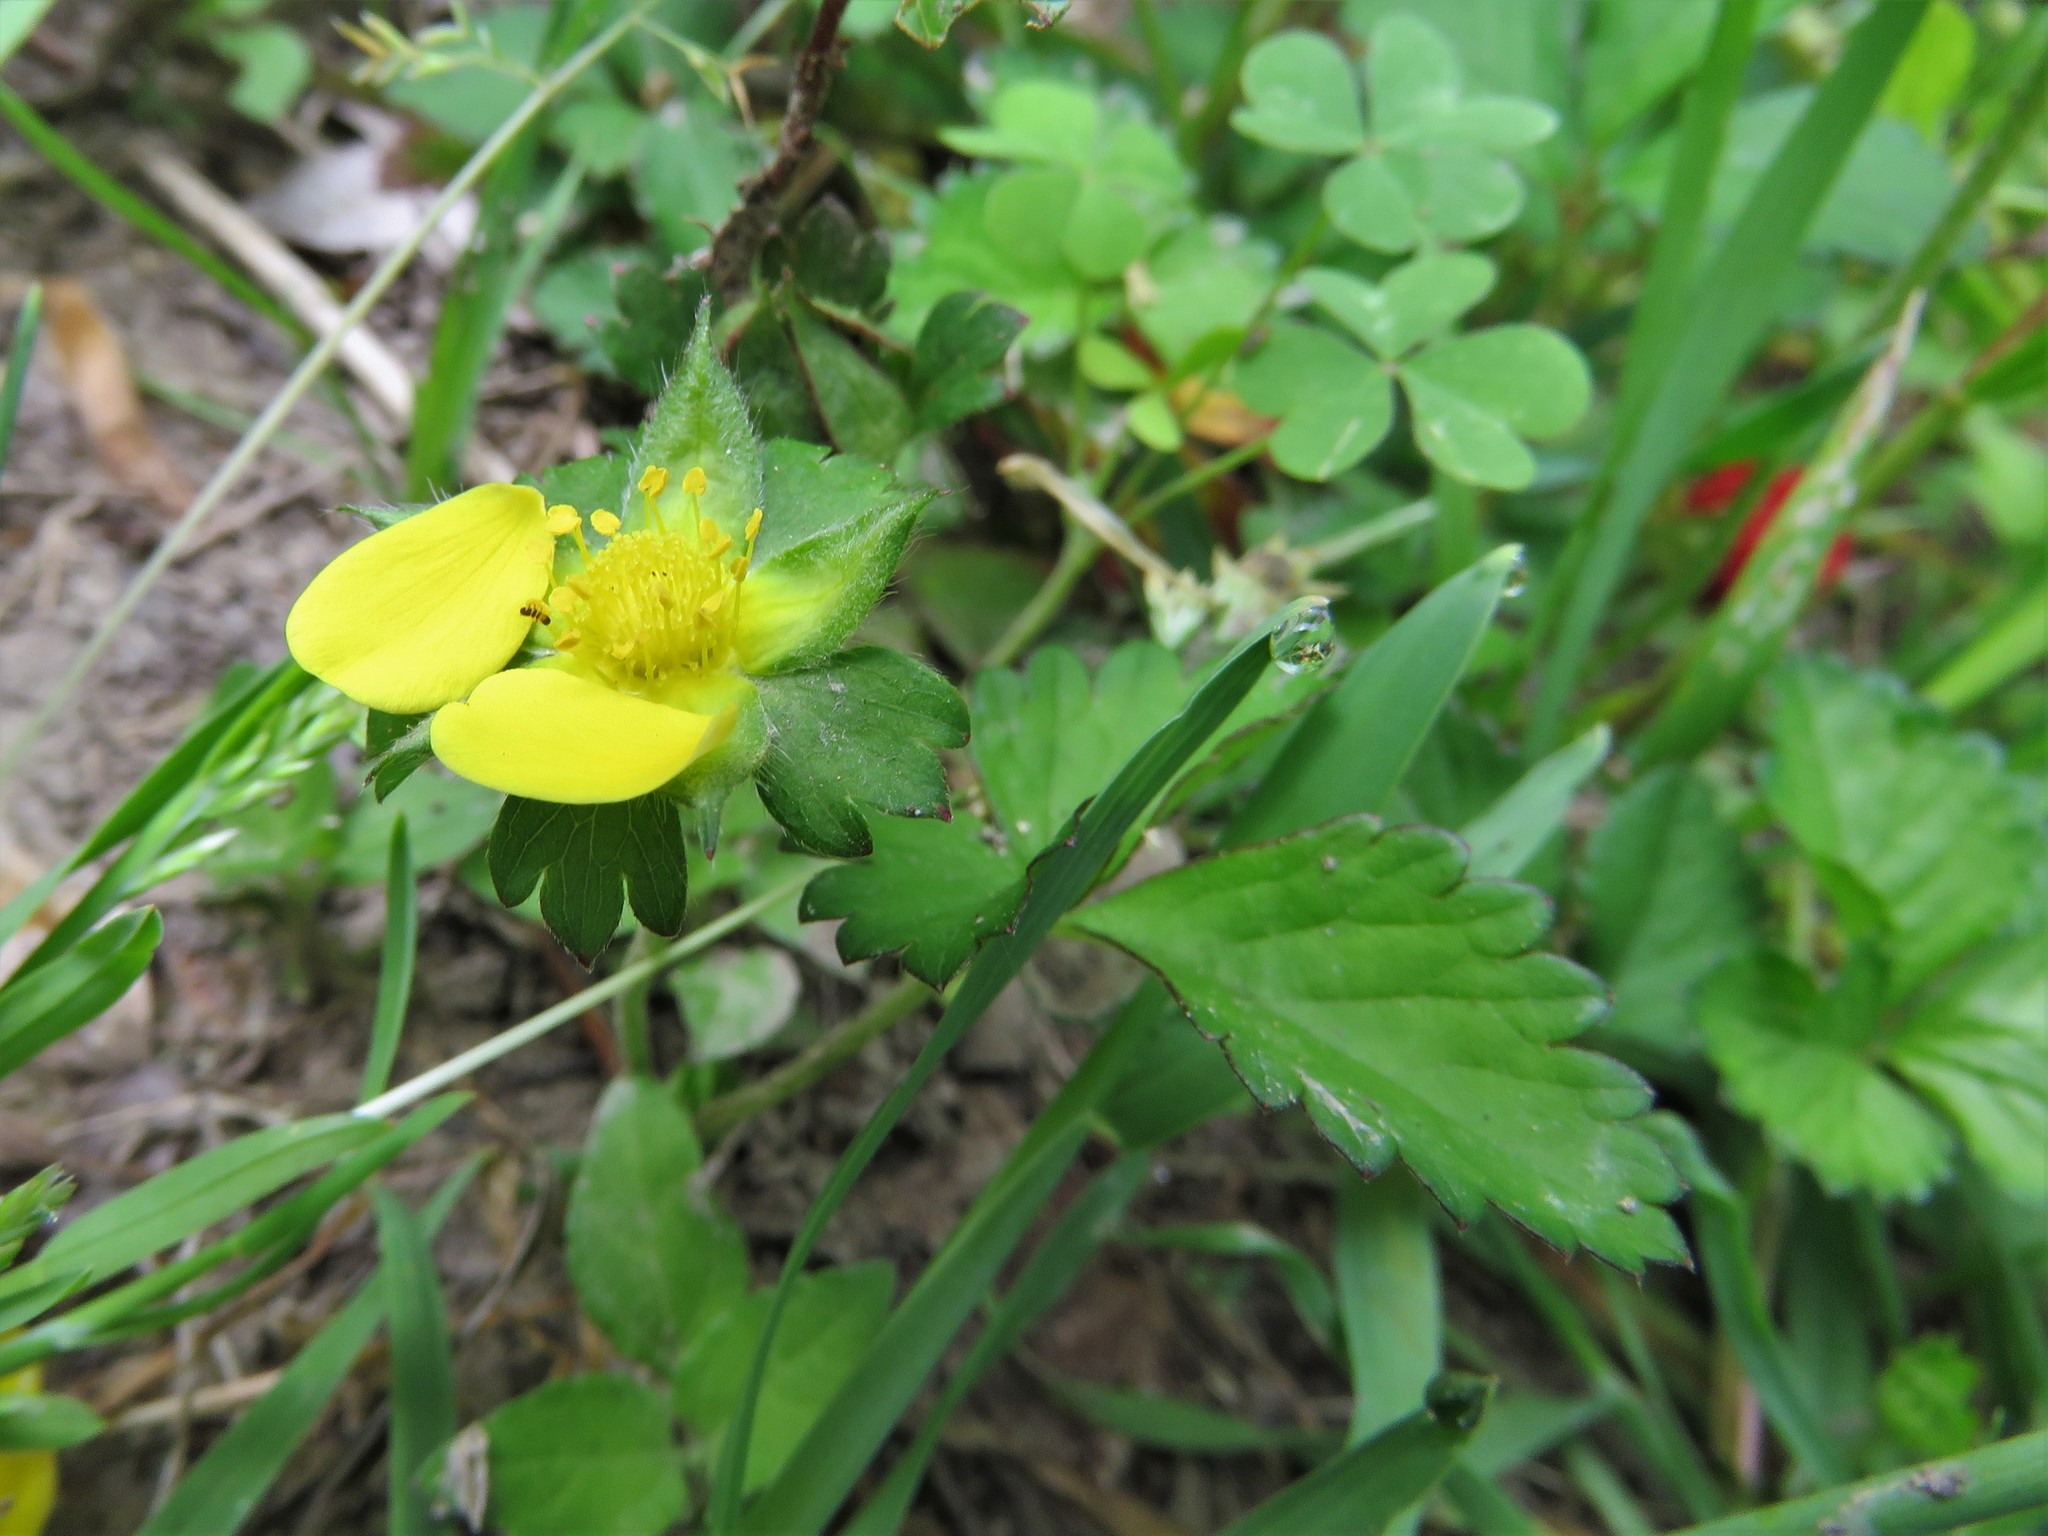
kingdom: Plantae
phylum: Tracheophyta
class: Magnoliopsida
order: Rosales
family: Rosaceae
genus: Potentilla
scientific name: Potentilla indica
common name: Yellow-flowered strawberry
